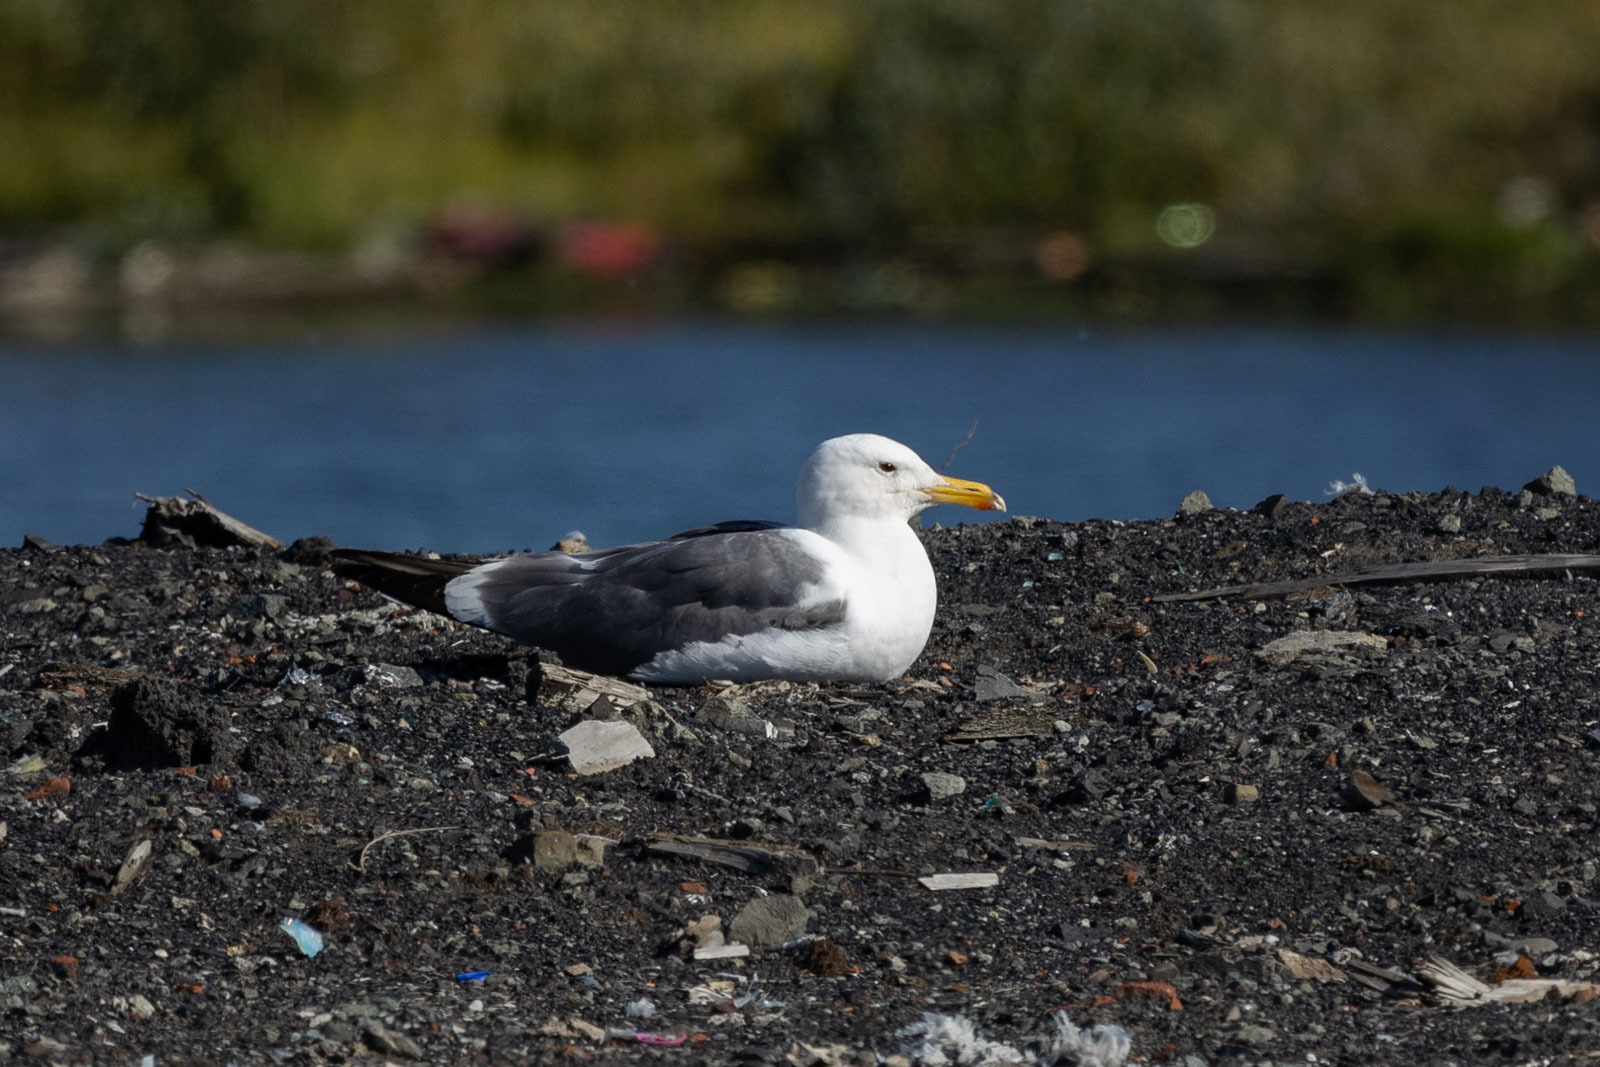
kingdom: Animalia
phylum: Chordata
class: Aves
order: Charadriiformes
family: Laridae
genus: Larus
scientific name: Larus fuscus
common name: Lesser black-backed gull
